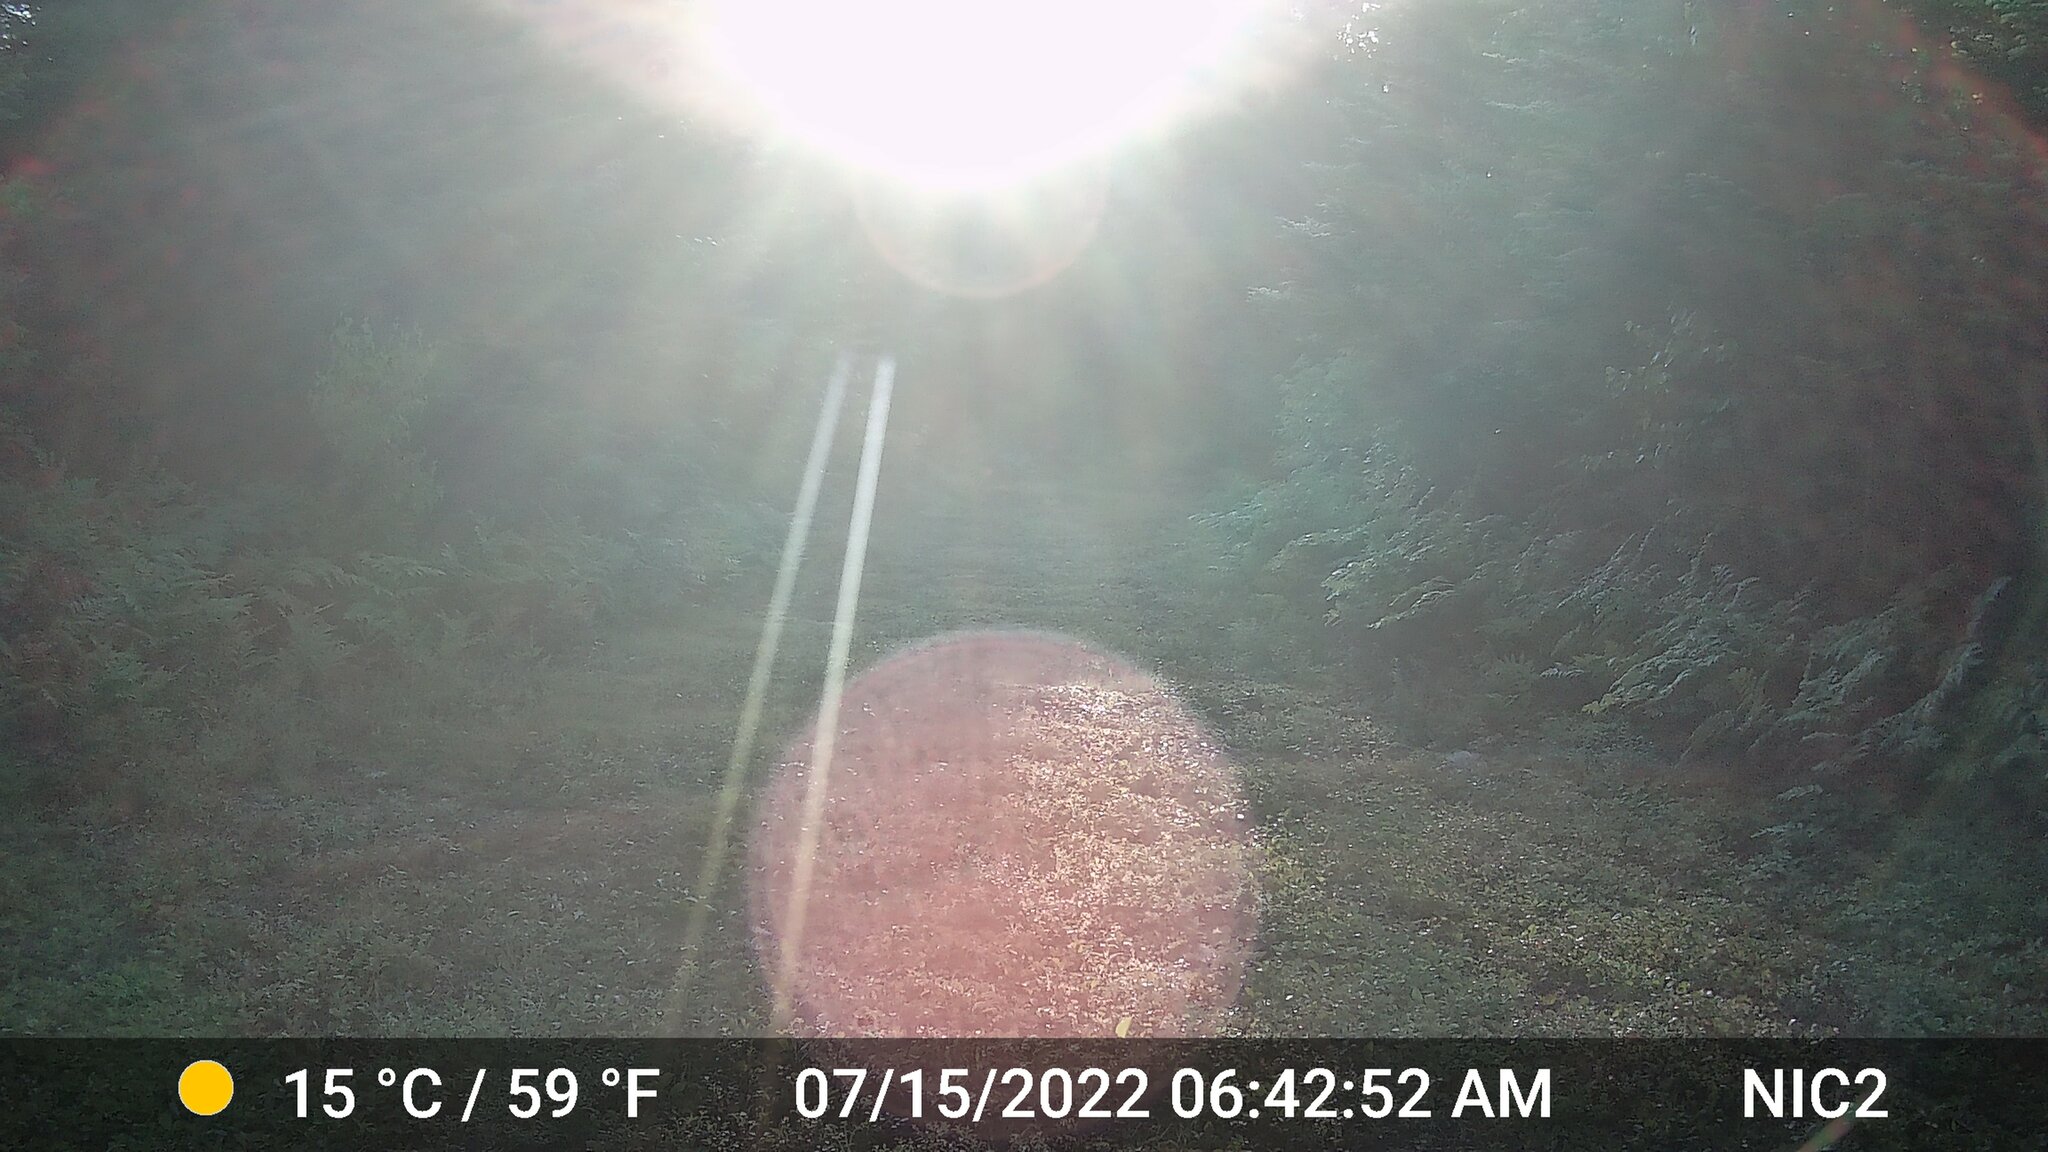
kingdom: Animalia
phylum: Chordata
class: Mammalia
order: Artiodactyla
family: Cervidae
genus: Odocoileus
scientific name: Odocoileus virginianus
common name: White-tailed deer
